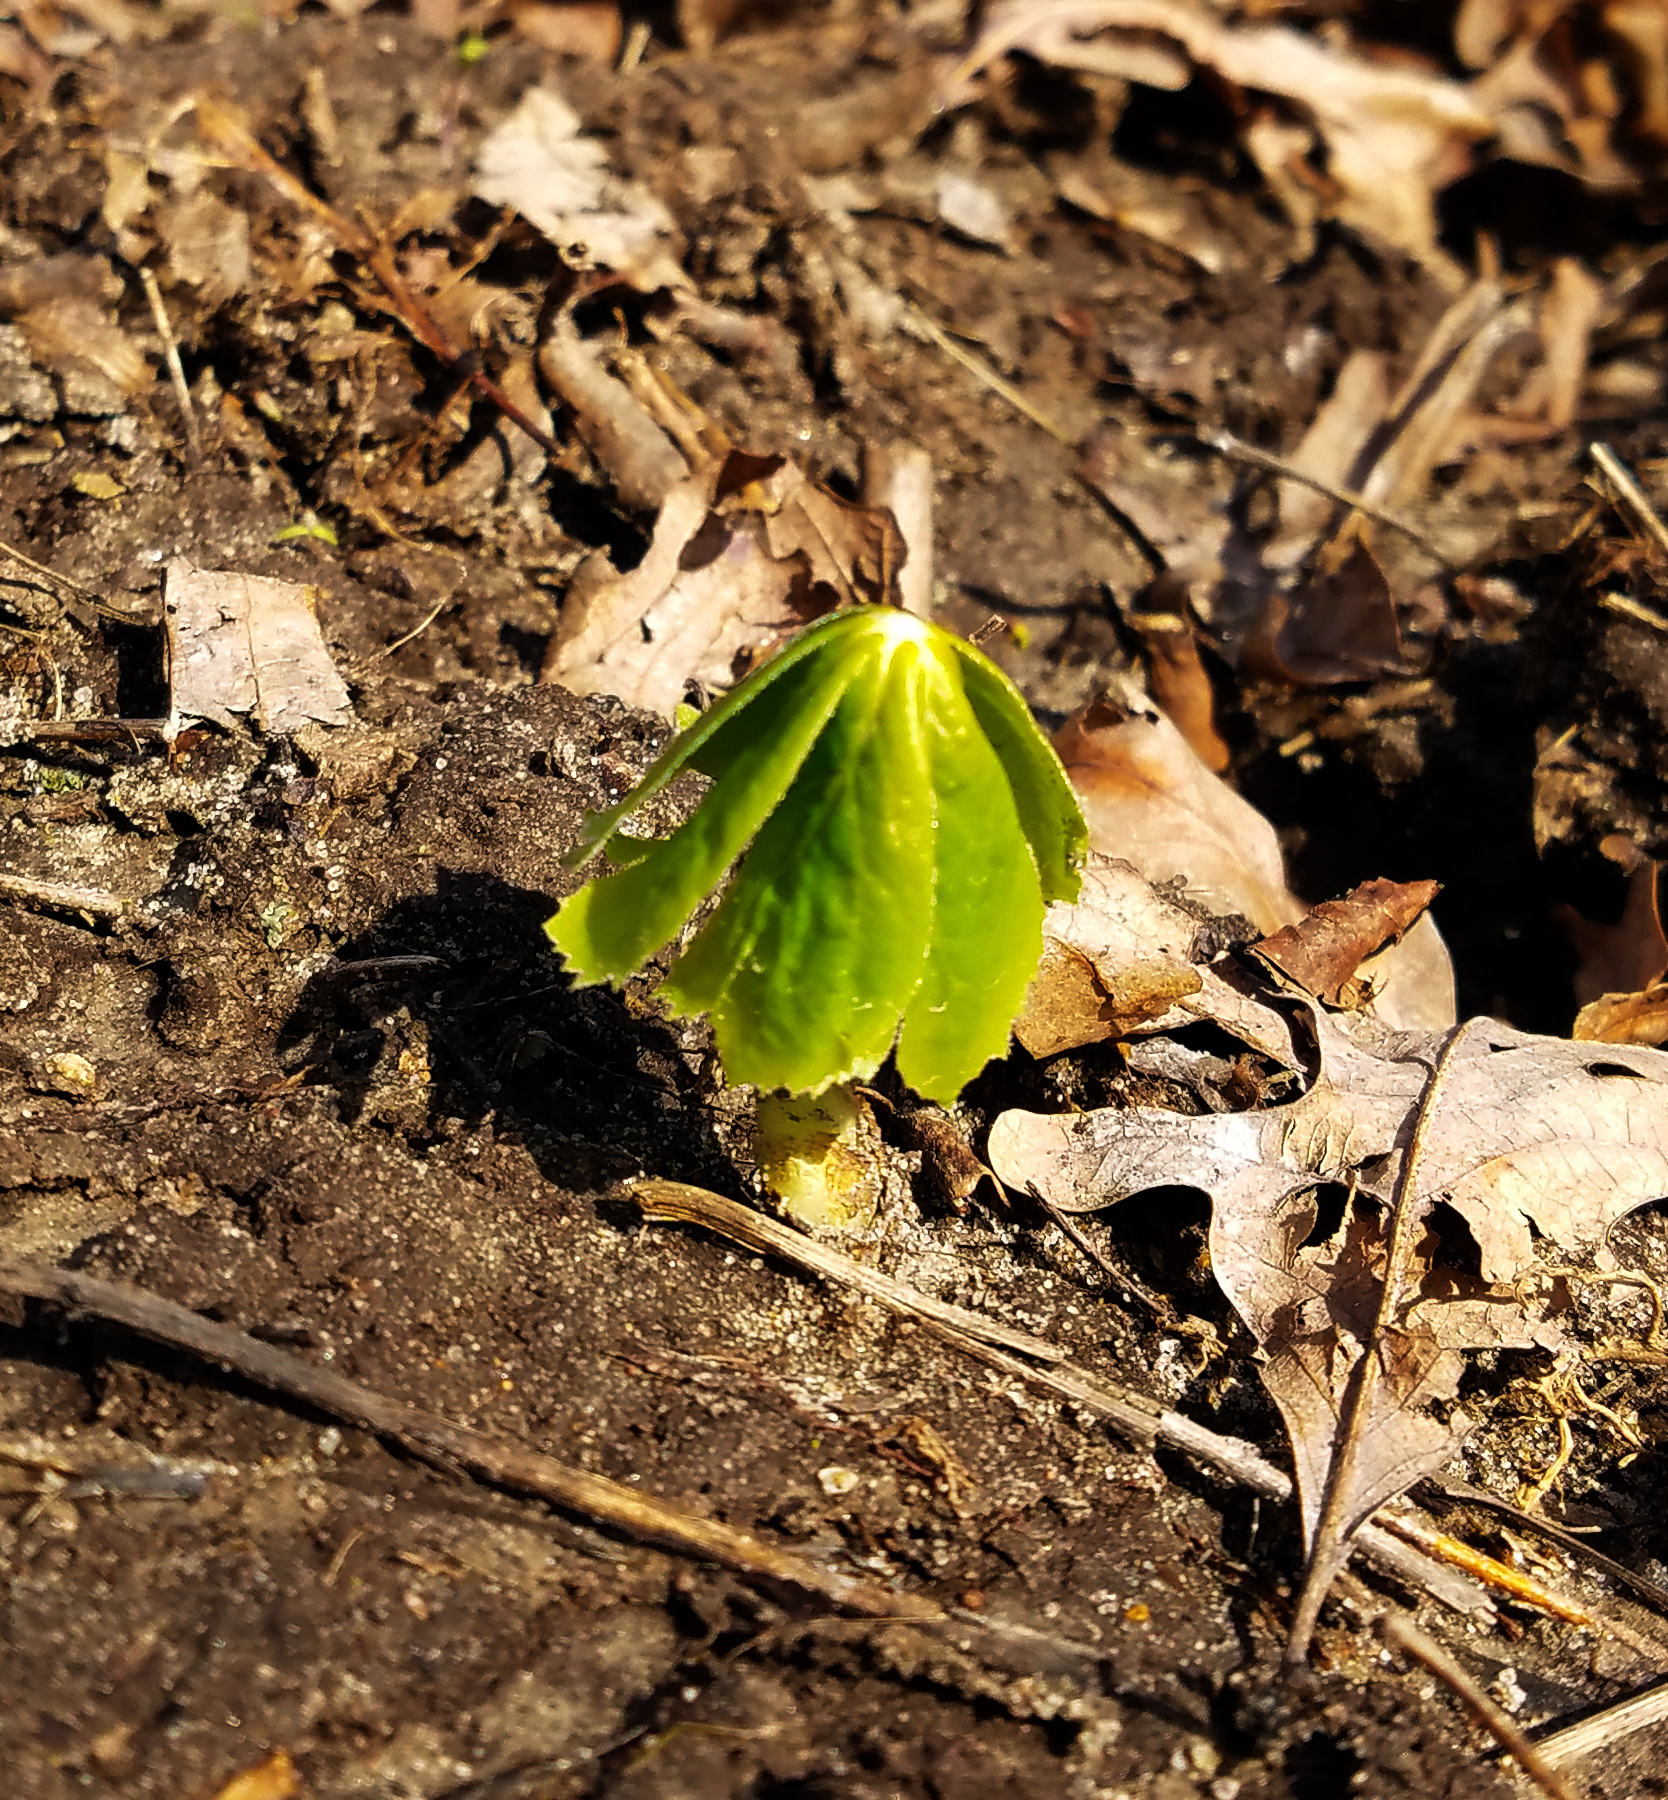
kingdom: Plantae
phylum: Tracheophyta
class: Magnoliopsida
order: Ranunculales
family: Berberidaceae
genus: Podophyllum
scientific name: Podophyllum peltatum
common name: Wild mandrake
